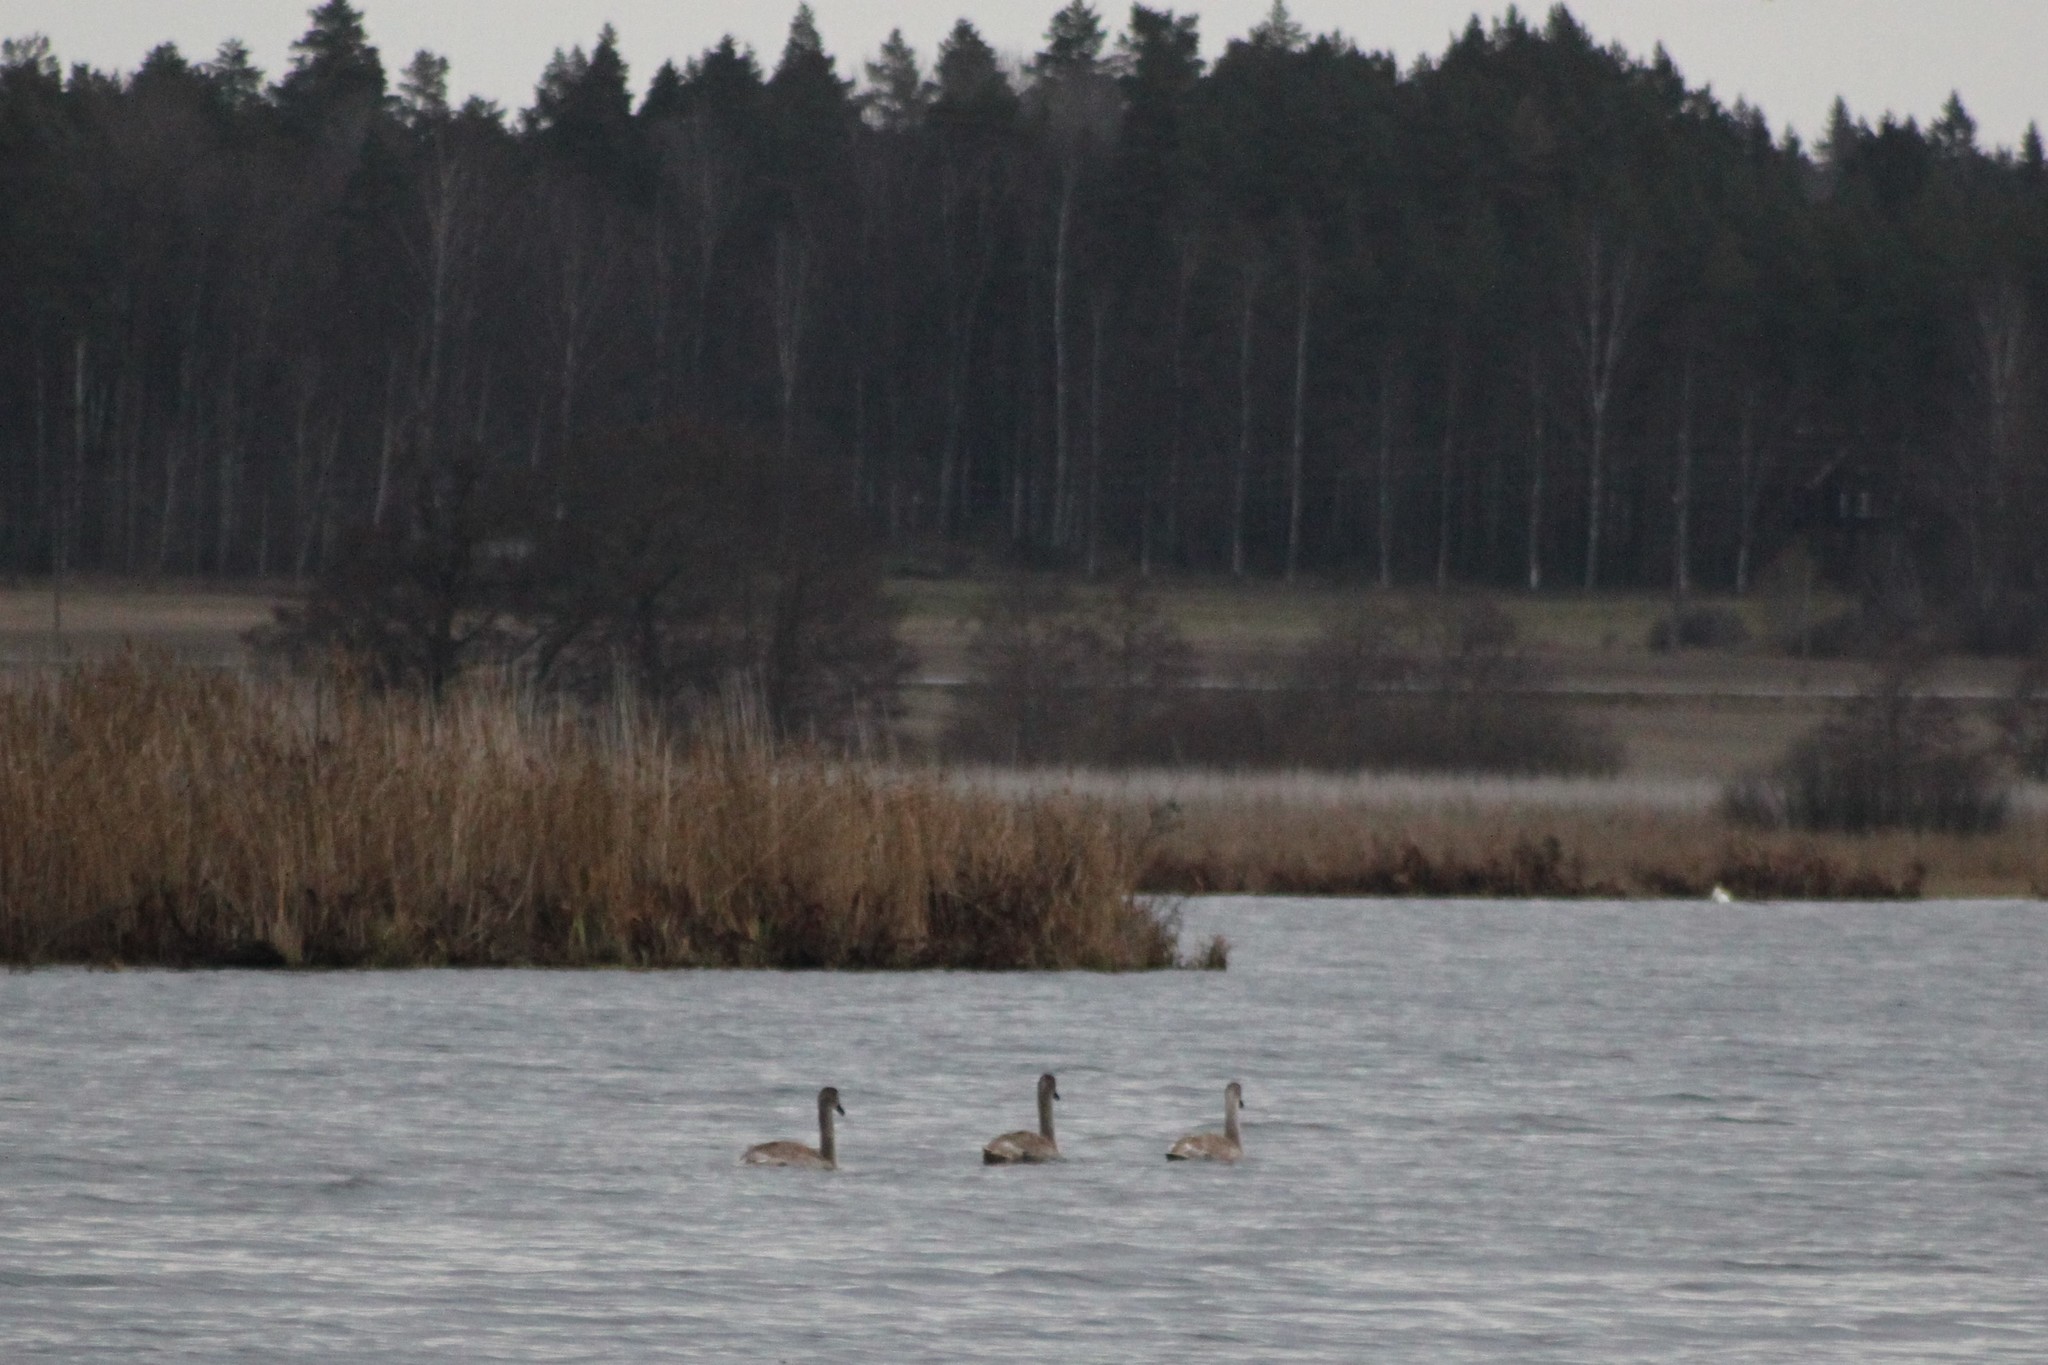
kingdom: Animalia
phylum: Chordata
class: Aves
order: Anseriformes
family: Anatidae
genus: Cygnus
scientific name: Cygnus olor
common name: Mute swan
